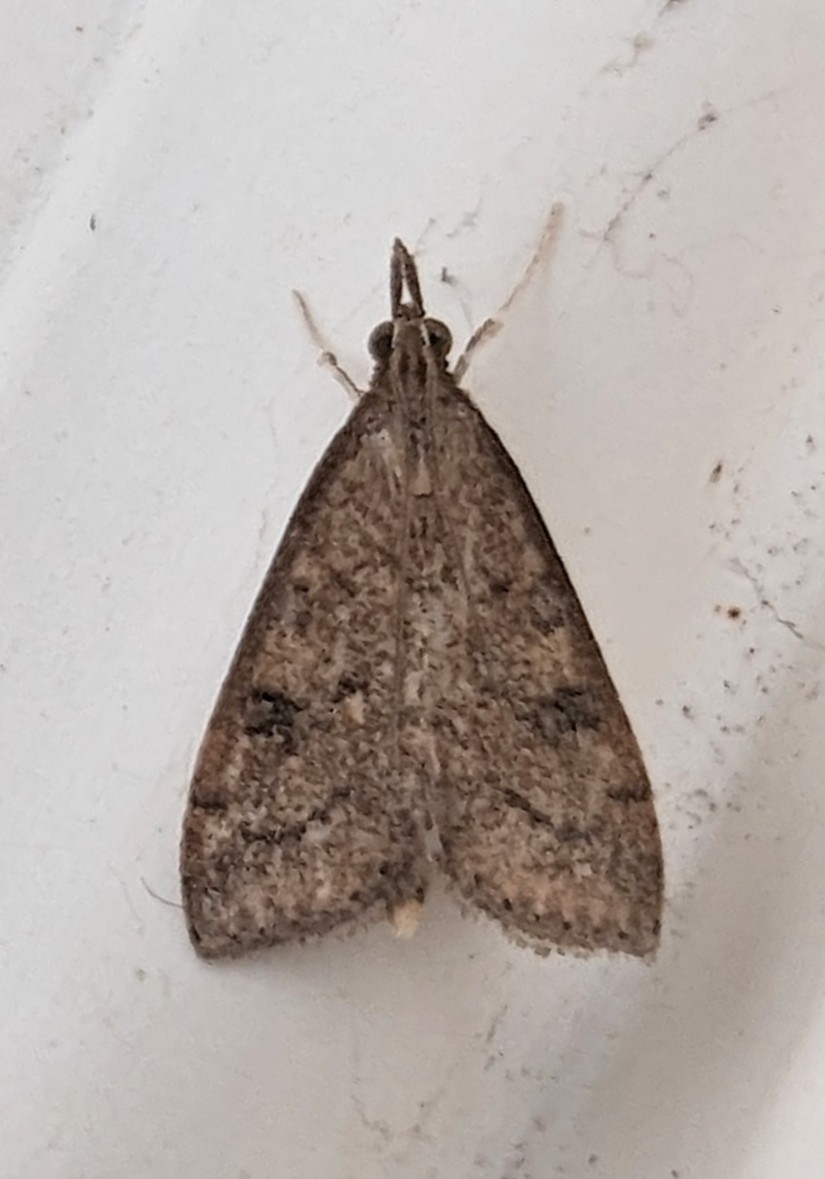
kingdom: Animalia
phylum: Arthropoda
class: Insecta
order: Lepidoptera
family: Crambidae
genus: Udea
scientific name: Udea rubigalis
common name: Celery leaftier moth
